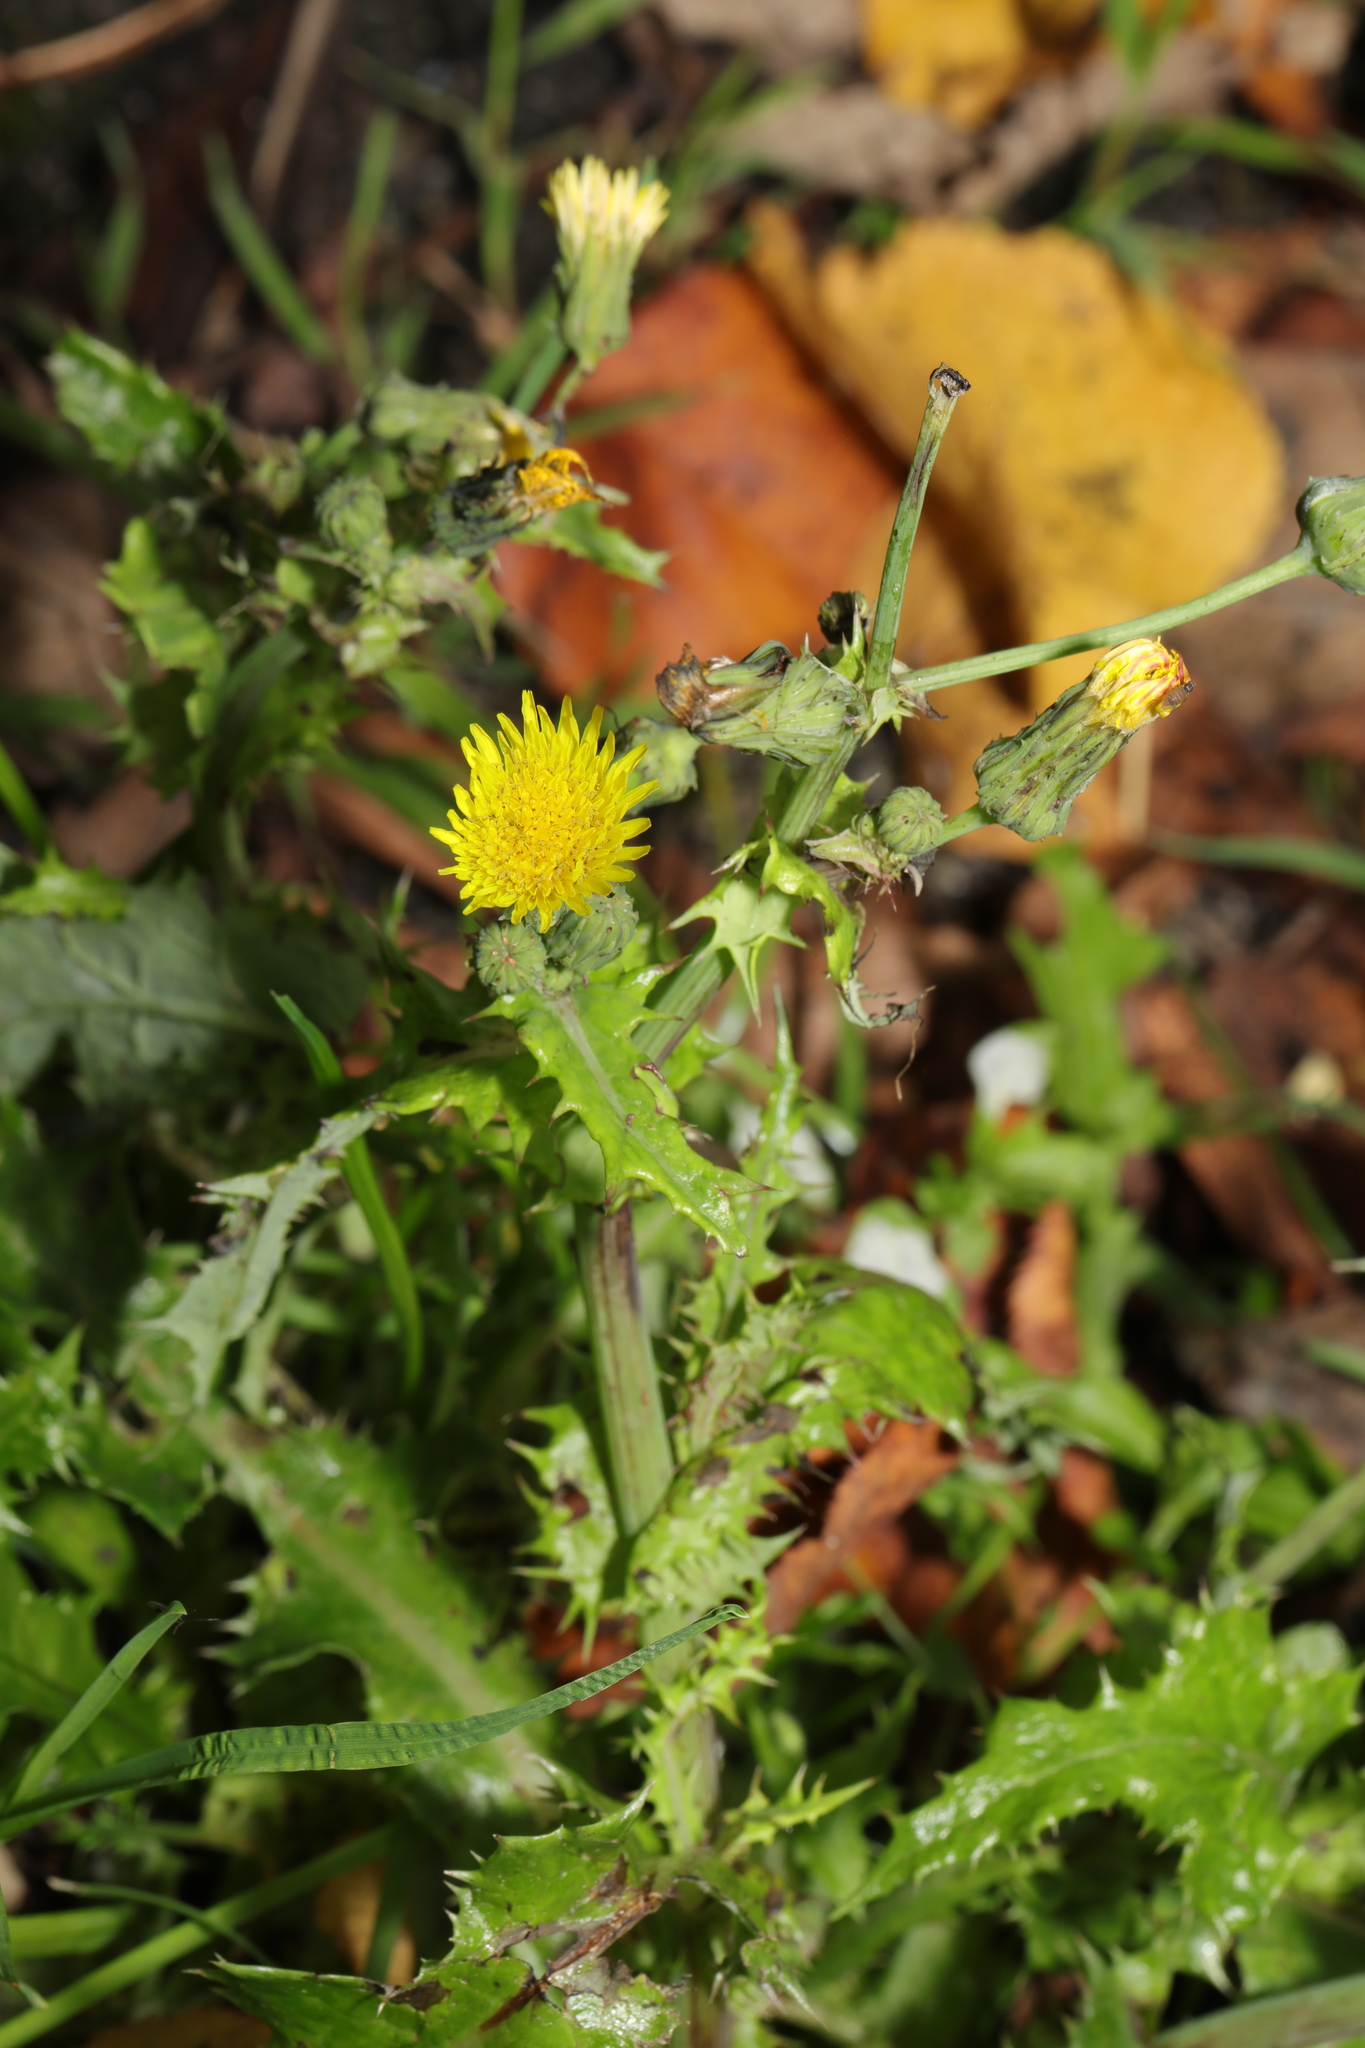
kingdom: Plantae
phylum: Tracheophyta
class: Magnoliopsida
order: Asterales
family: Asteraceae
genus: Sonchus
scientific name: Sonchus asper
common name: Prickly sow-thistle
